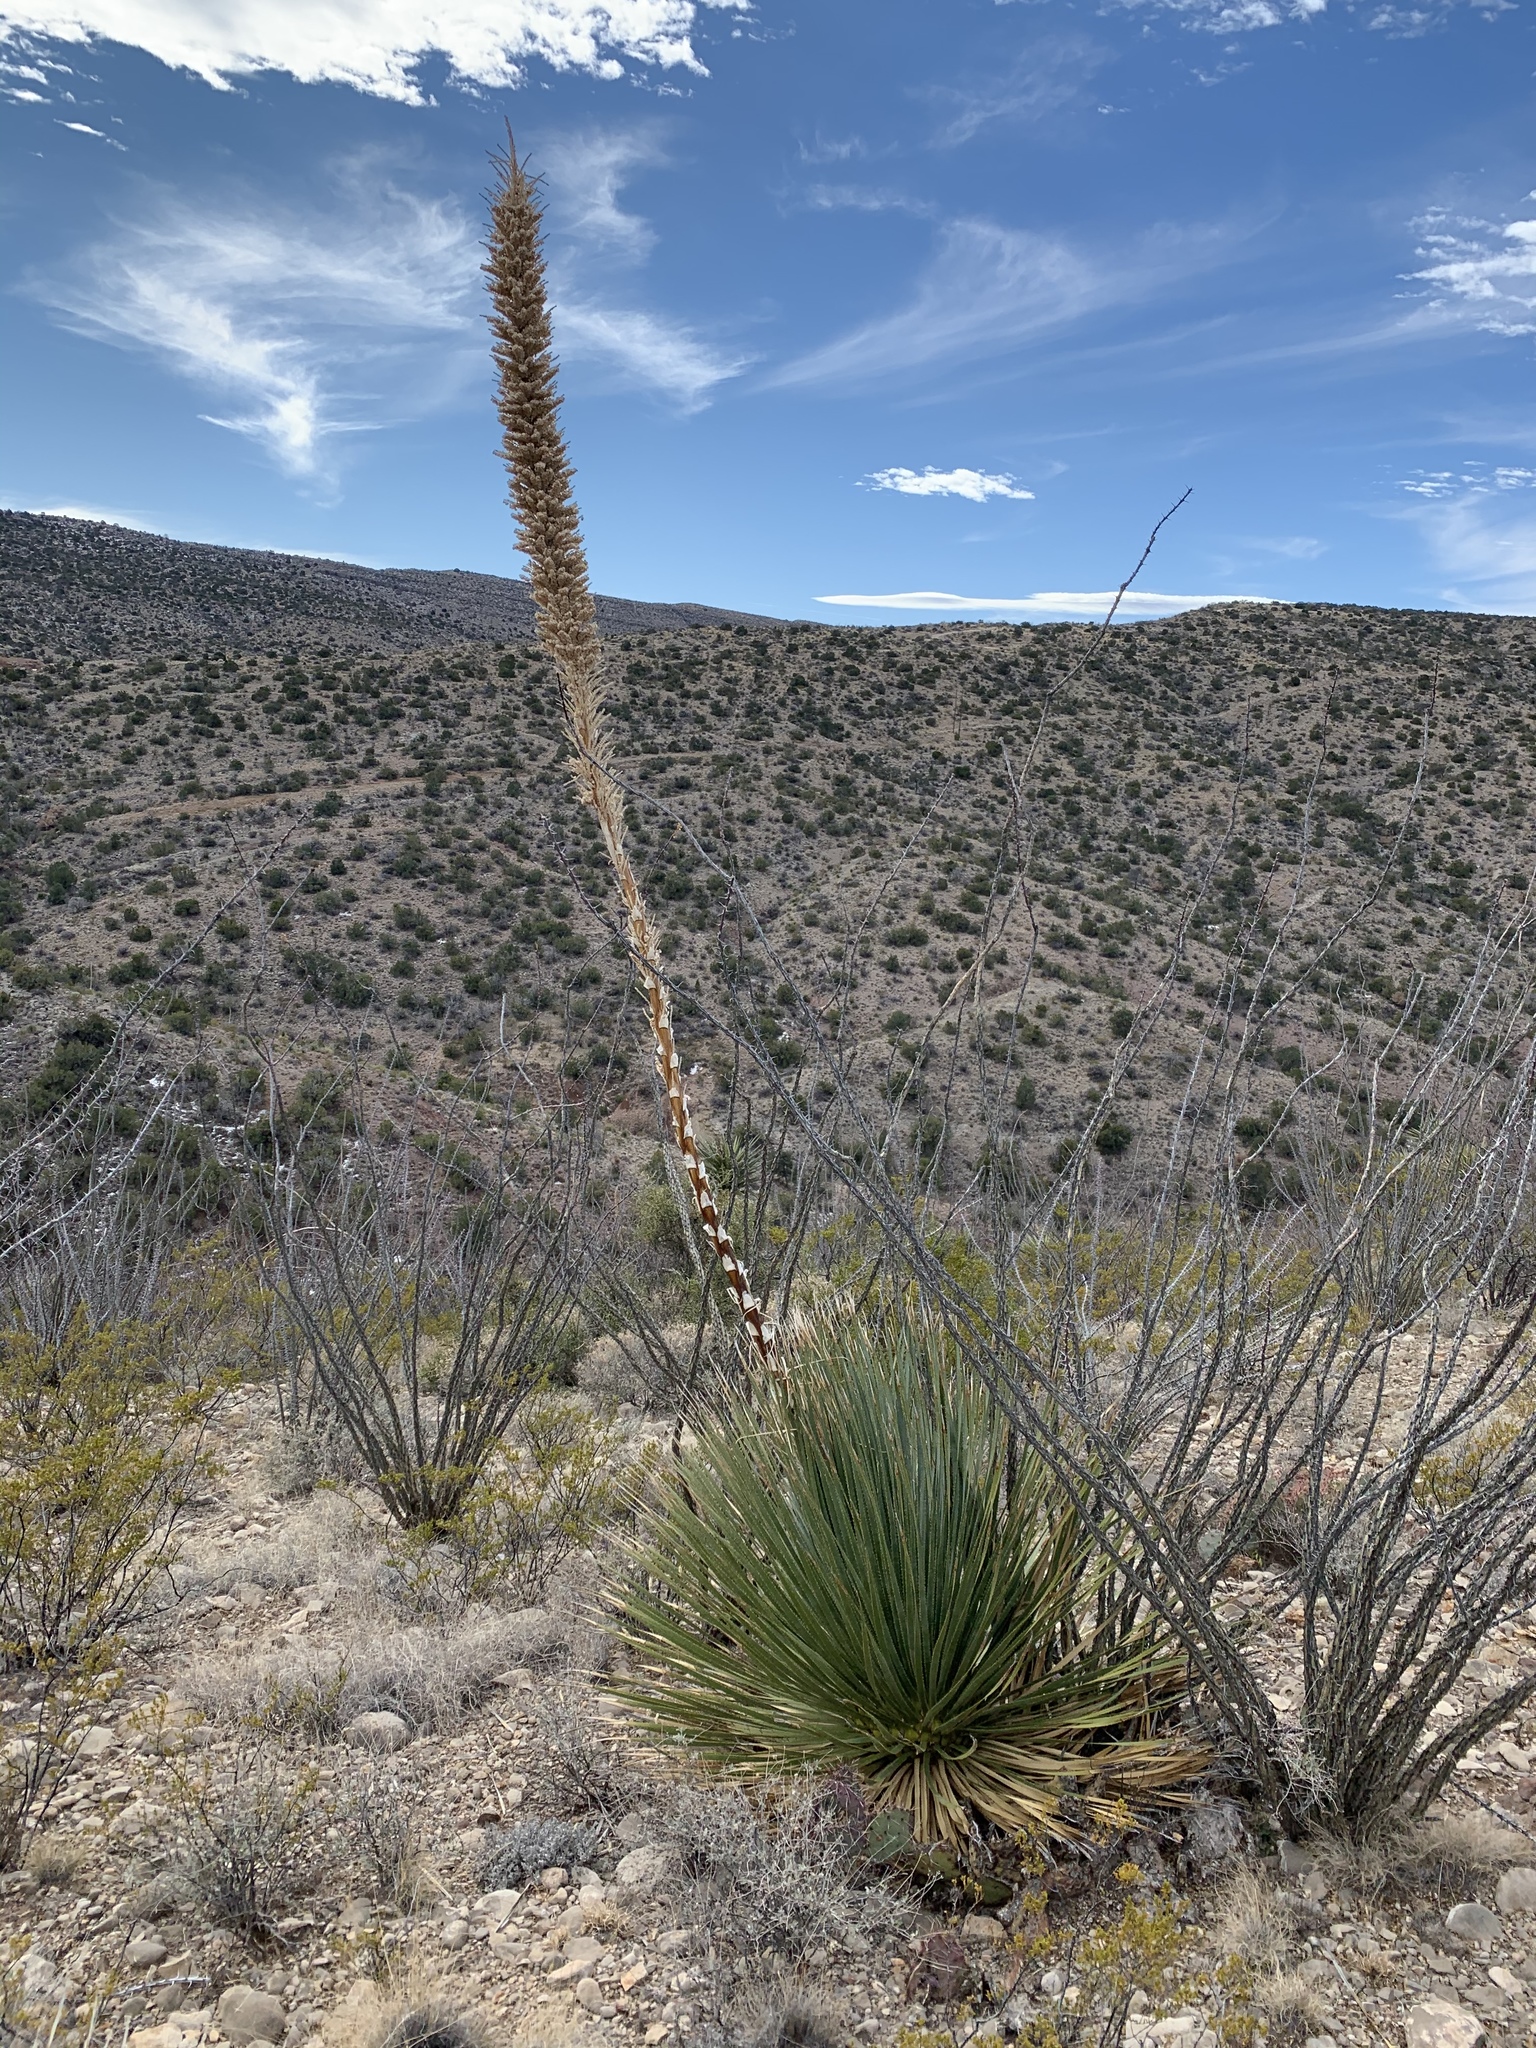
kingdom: Plantae
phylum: Tracheophyta
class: Liliopsida
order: Asparagales
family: Asparagaceae
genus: Dasylirion
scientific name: Dasylirion wheeleri
